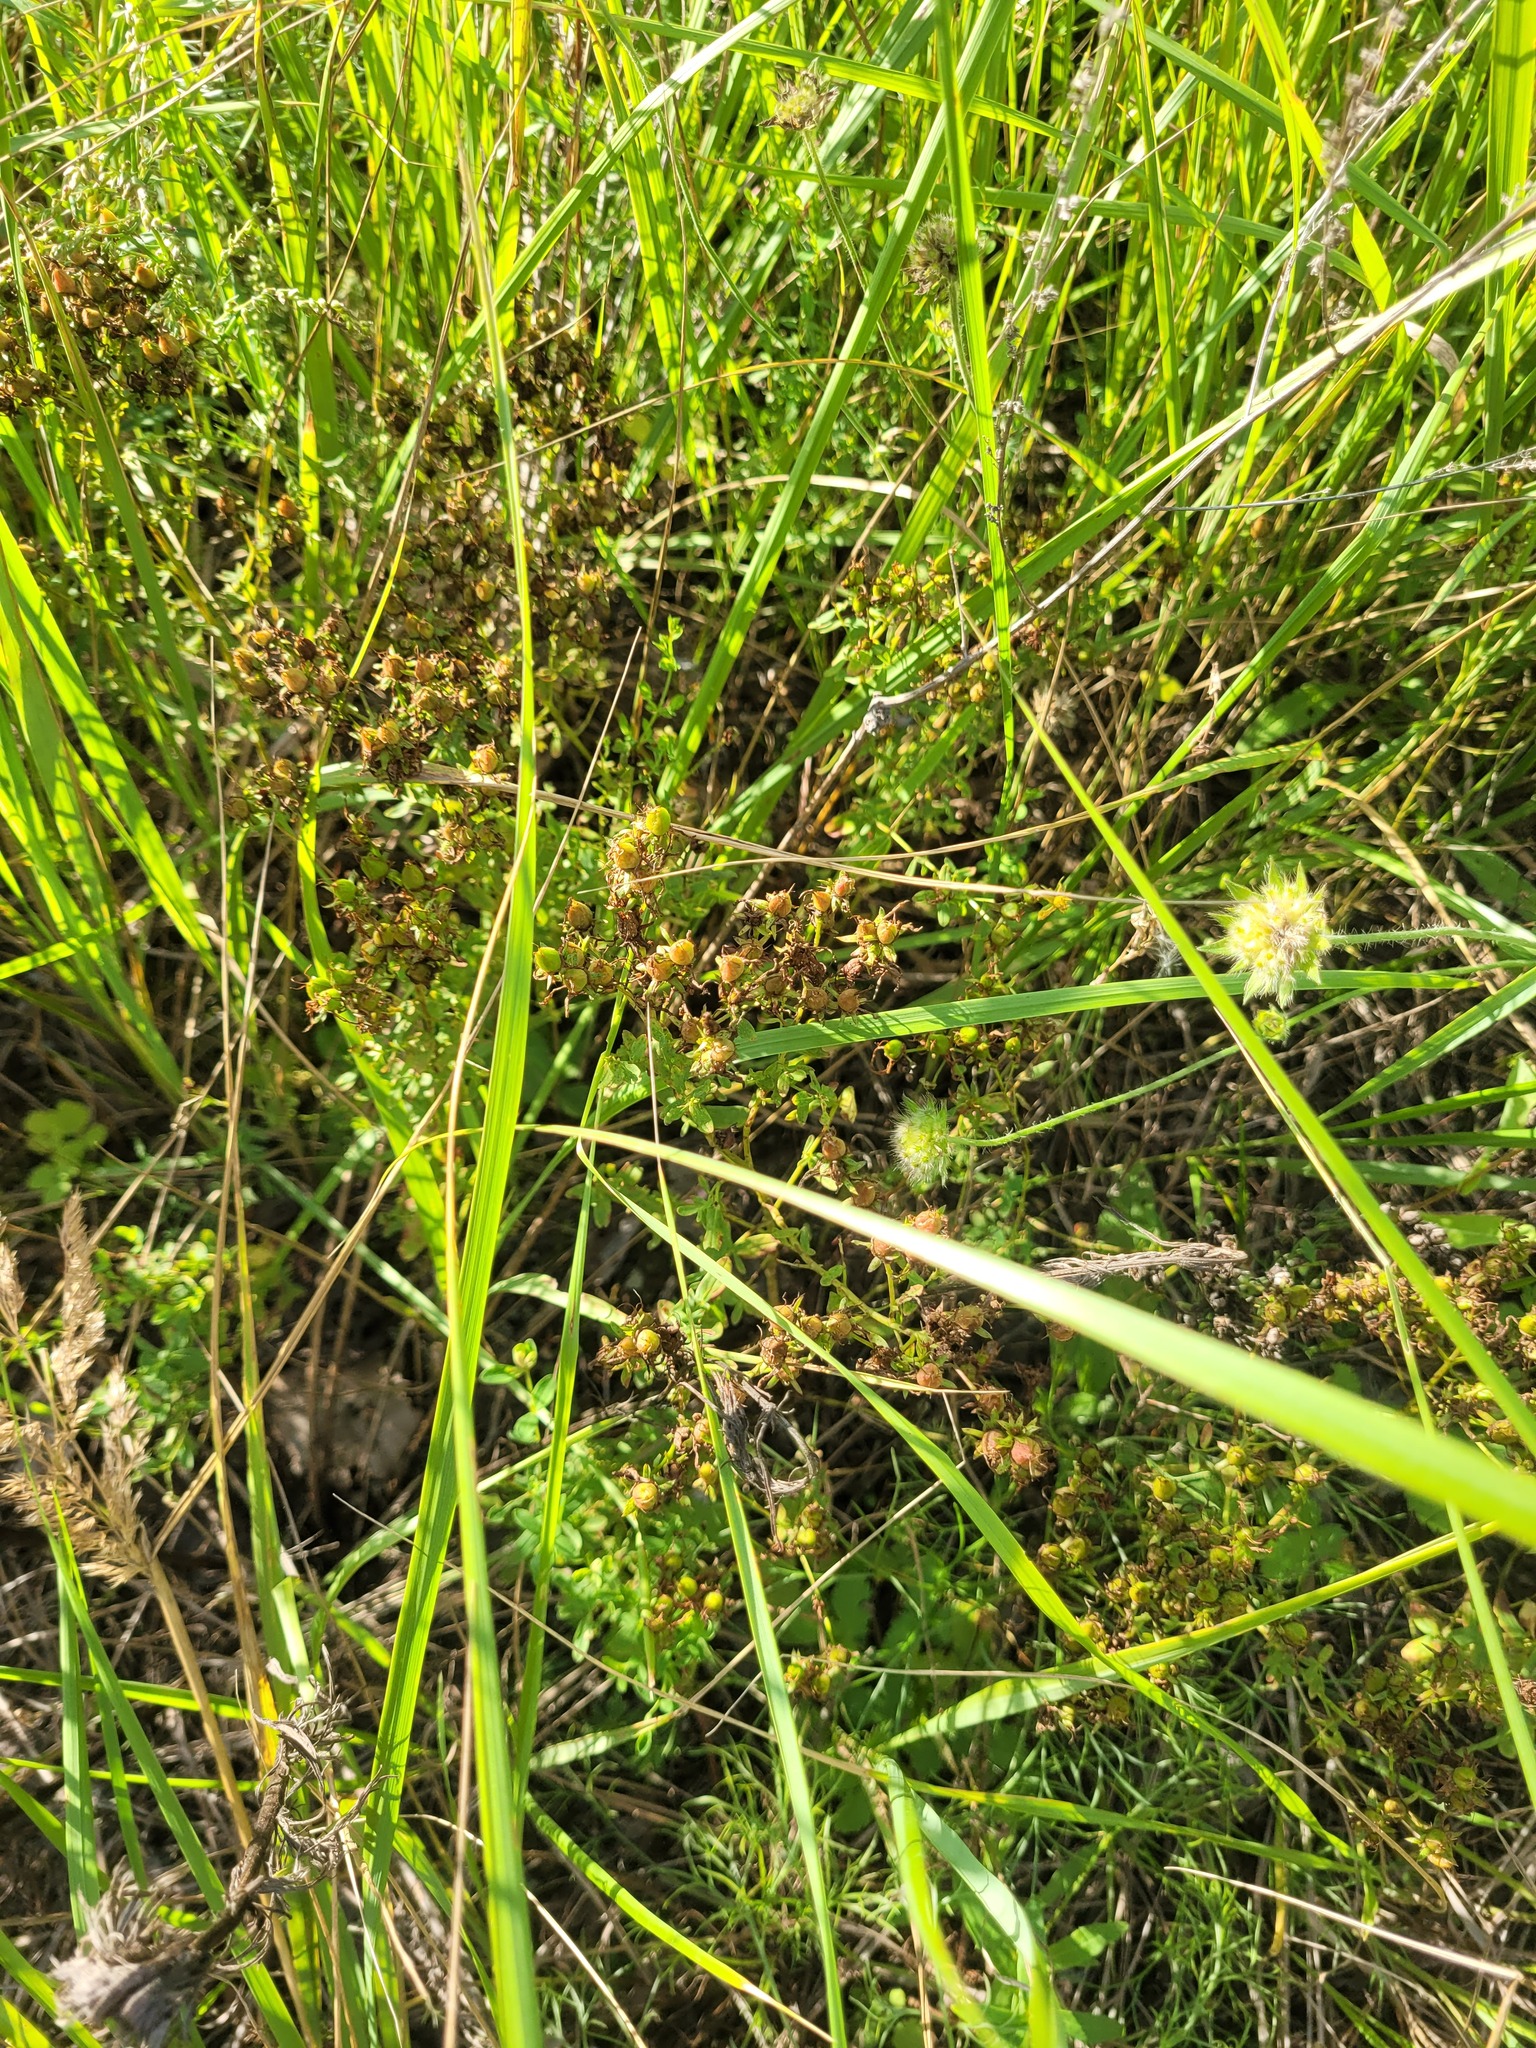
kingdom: Plantae
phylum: Tracheophyta
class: Magnoliopsida
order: Malpighiales
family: Hypericaceae
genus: Hypericum
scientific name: Hypericum perforatum
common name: Common st. johnswort
